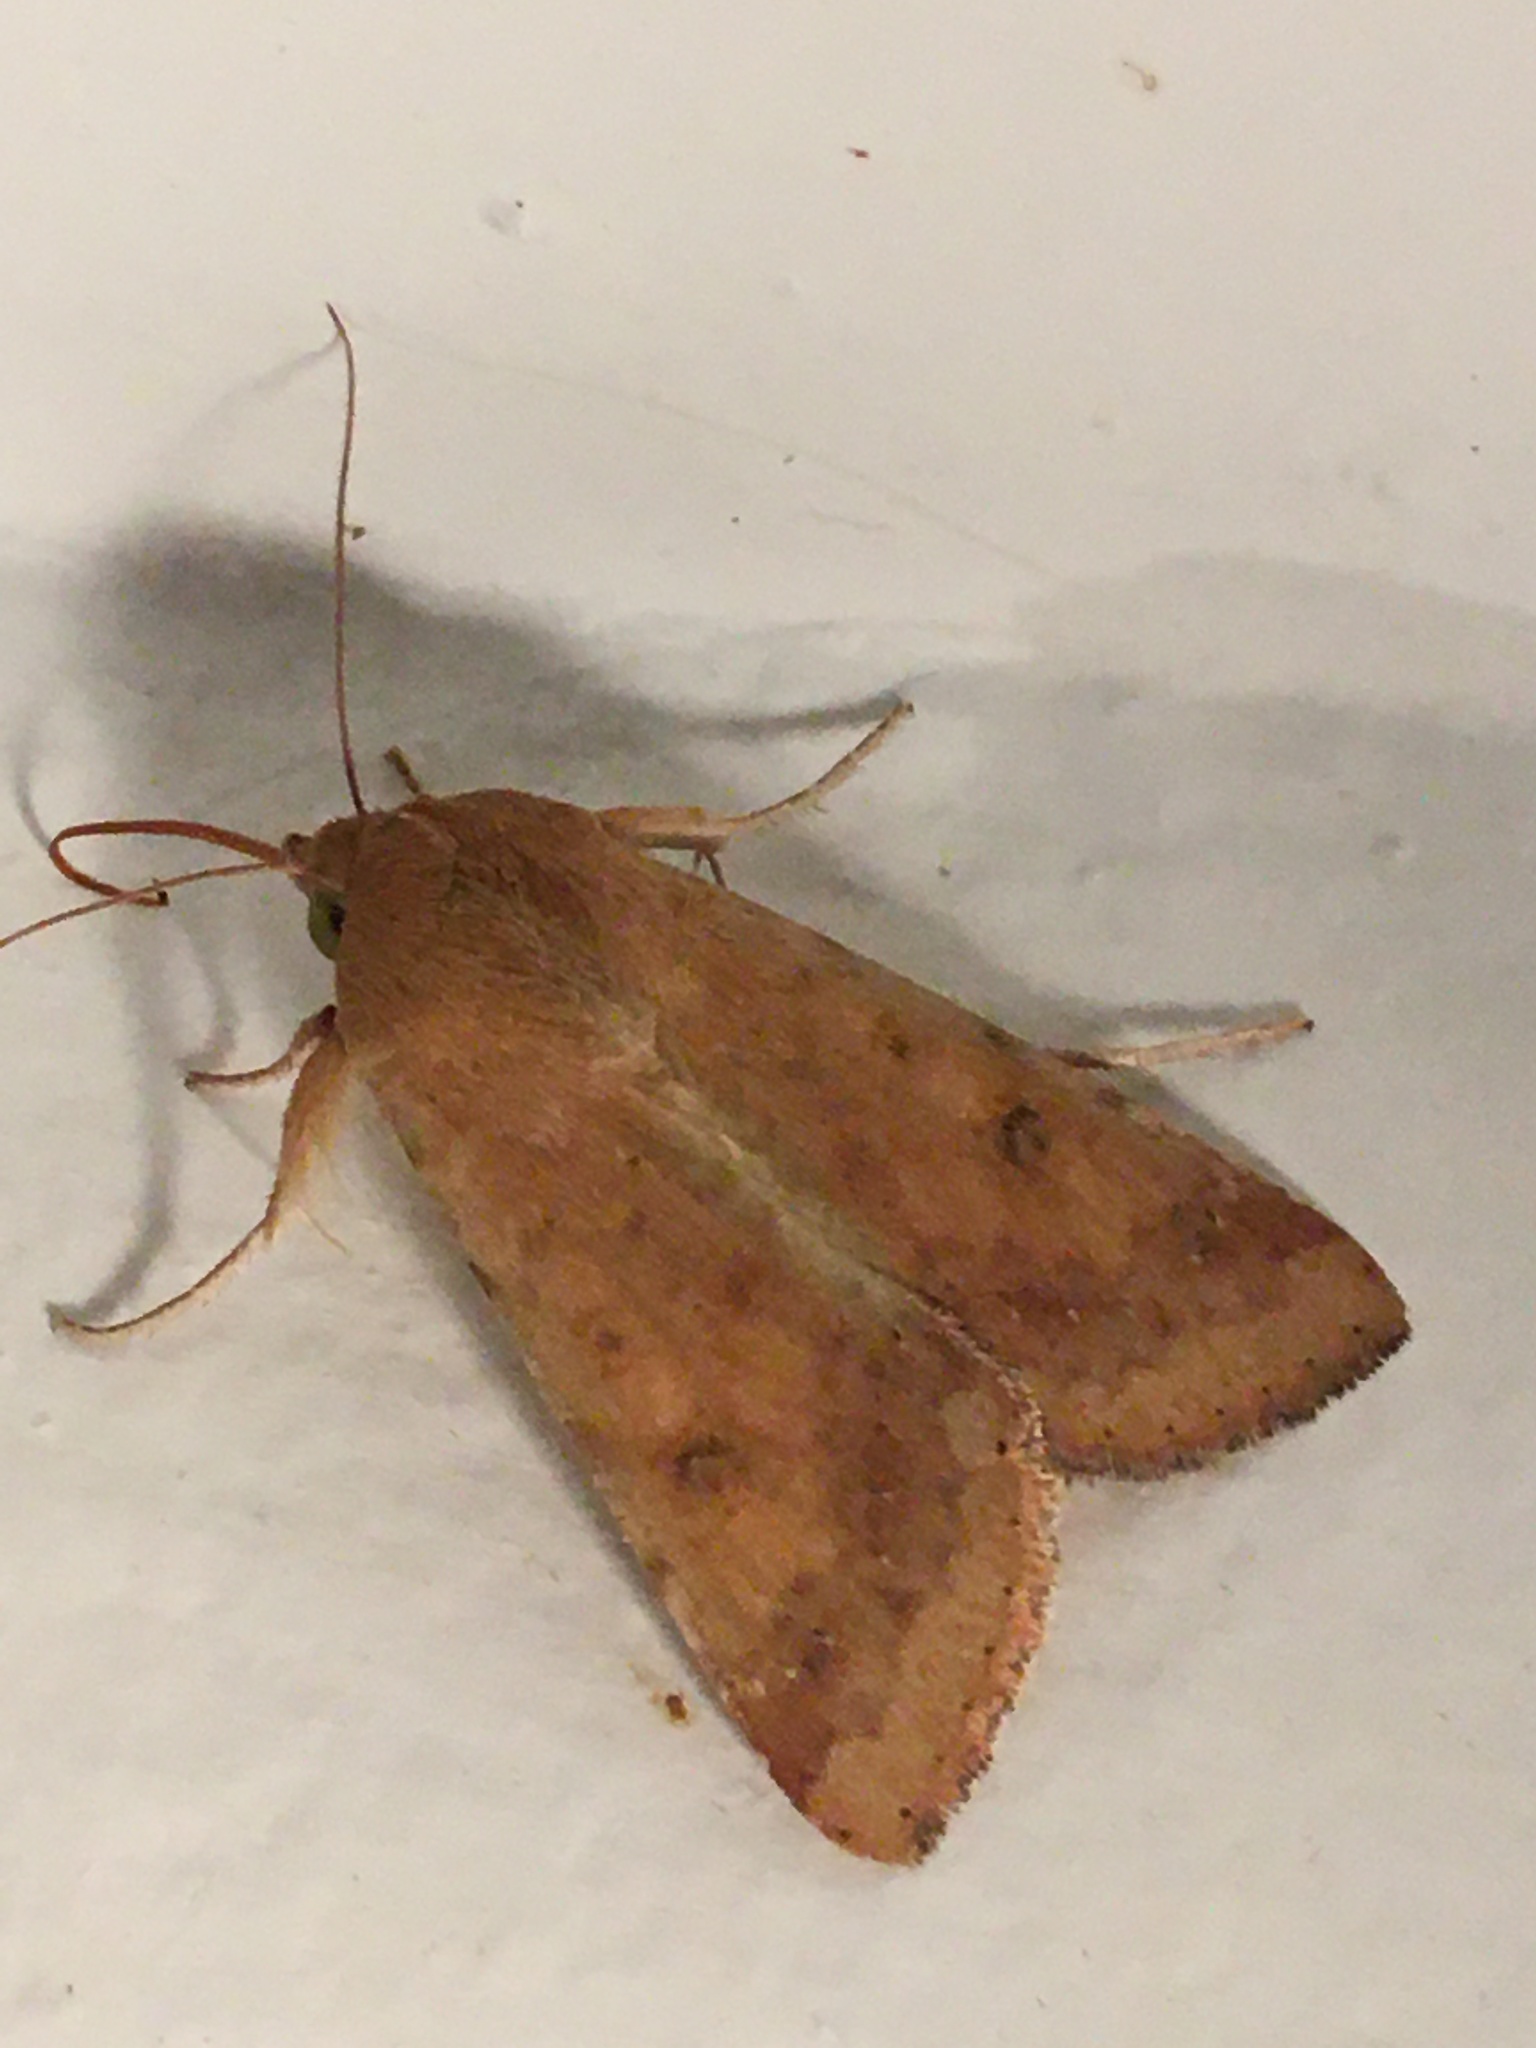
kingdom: Animalia
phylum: Arthropoda
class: Insecta
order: Lepidoptera
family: Noctuidae
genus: Helicoverpa
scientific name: Helicoverpa zea
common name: Bollworm
